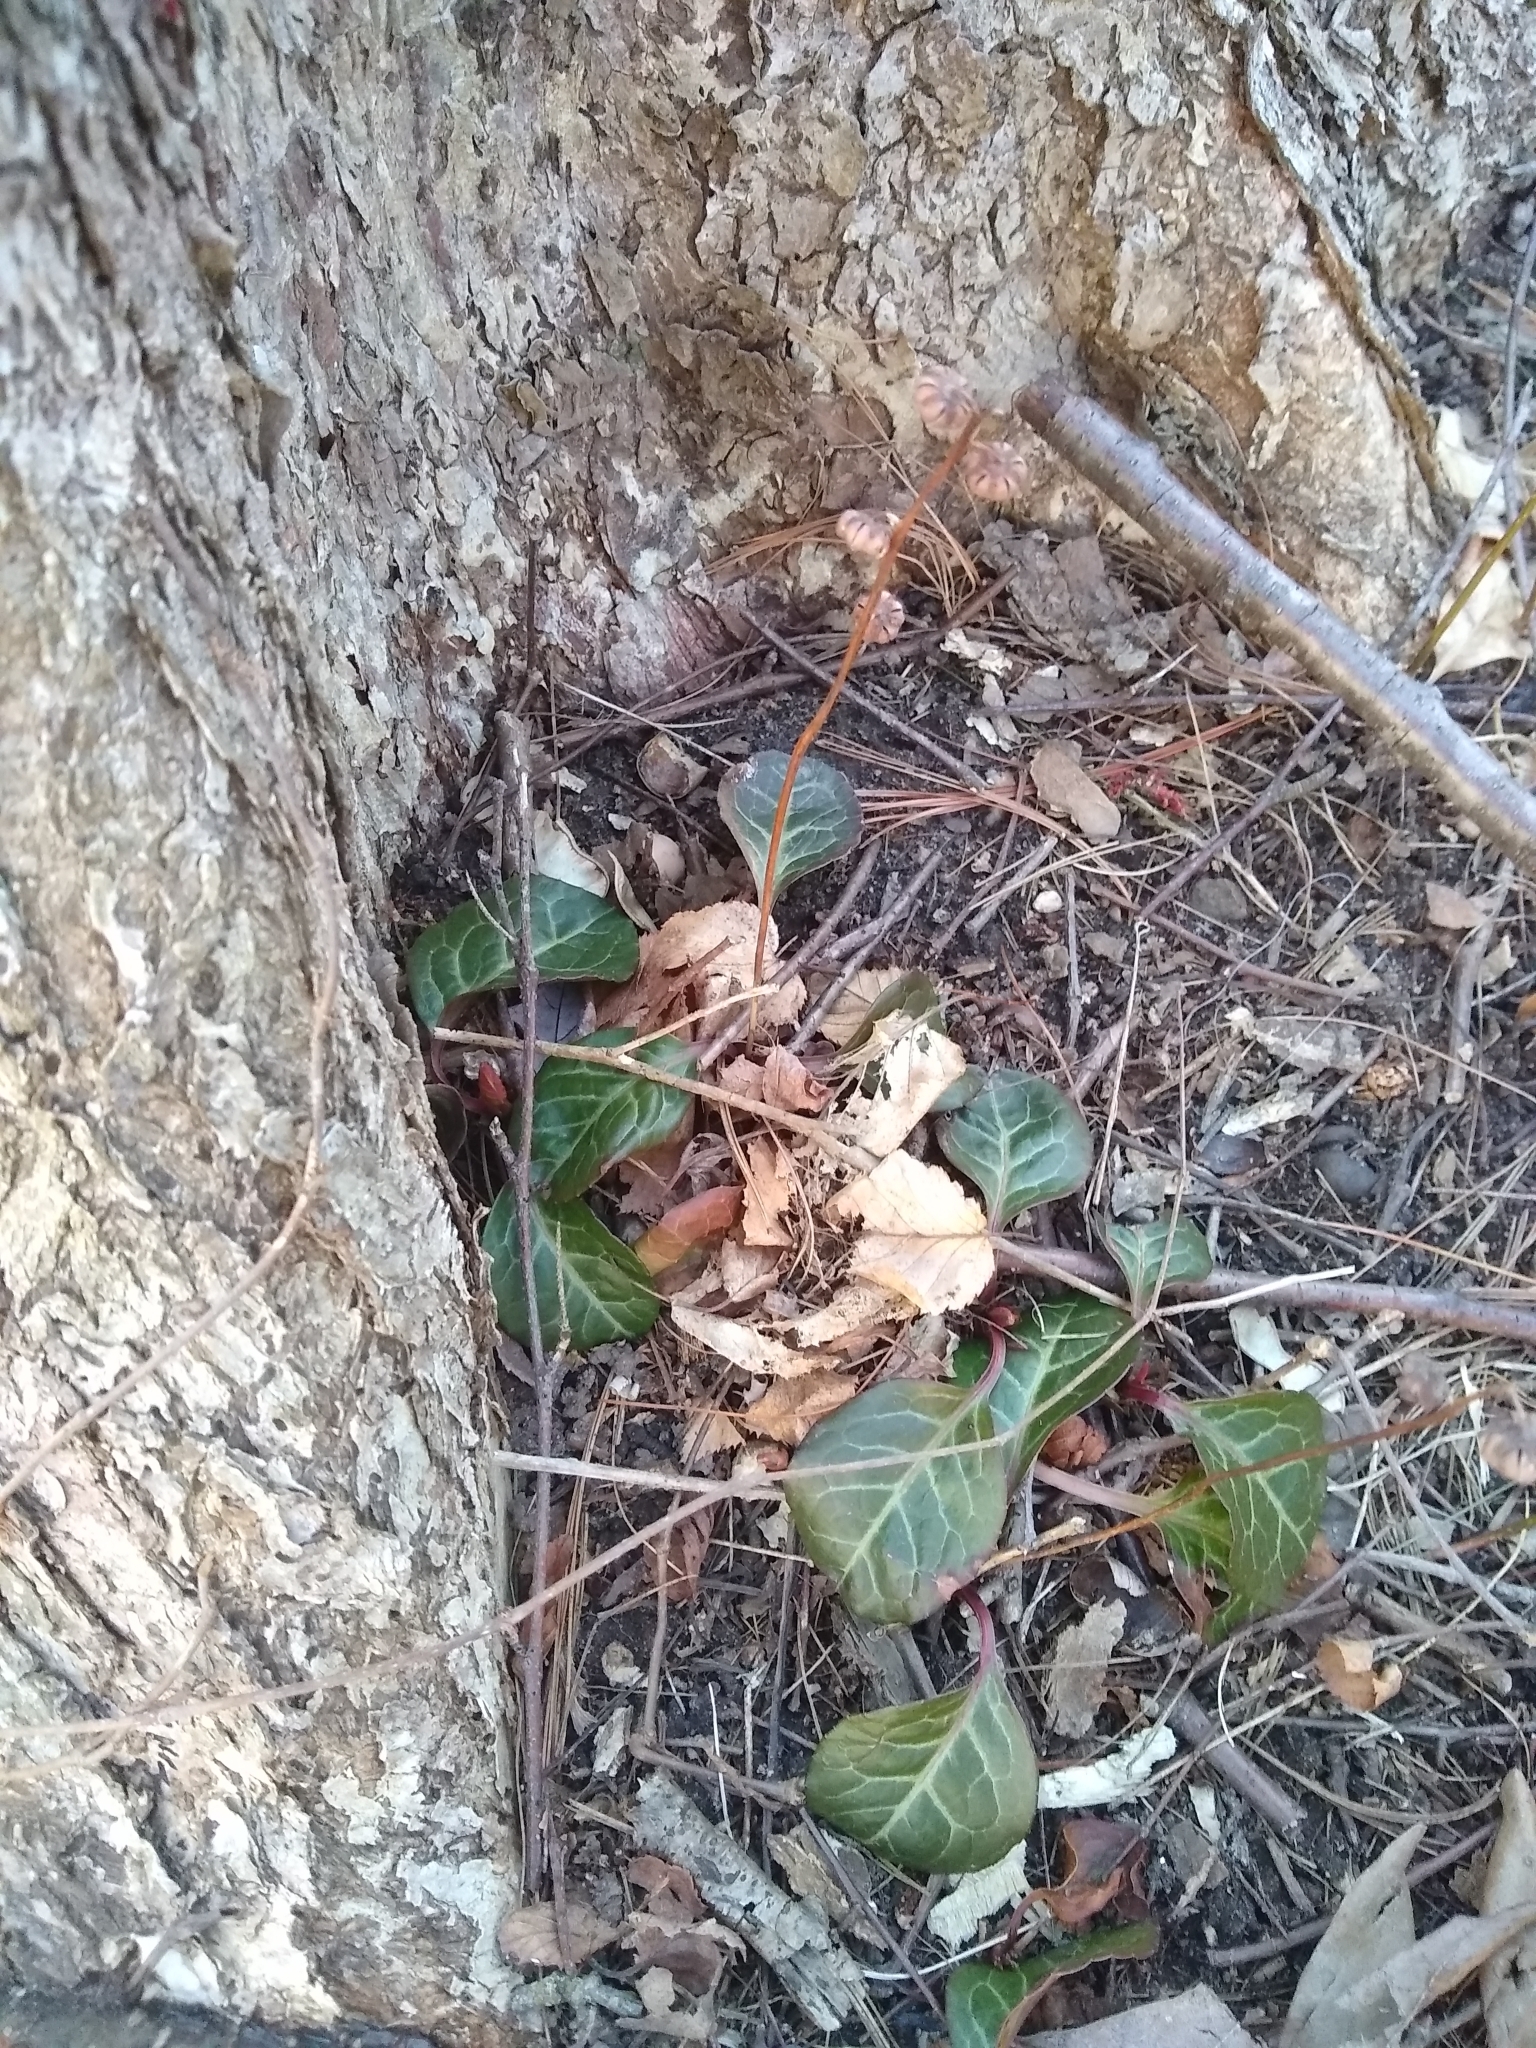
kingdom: Plantae
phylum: Tracheophyta
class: Magnoliopsida
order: Ericales
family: Ericaceae
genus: Pyrola
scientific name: Pyrola americana
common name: American wintergreen
